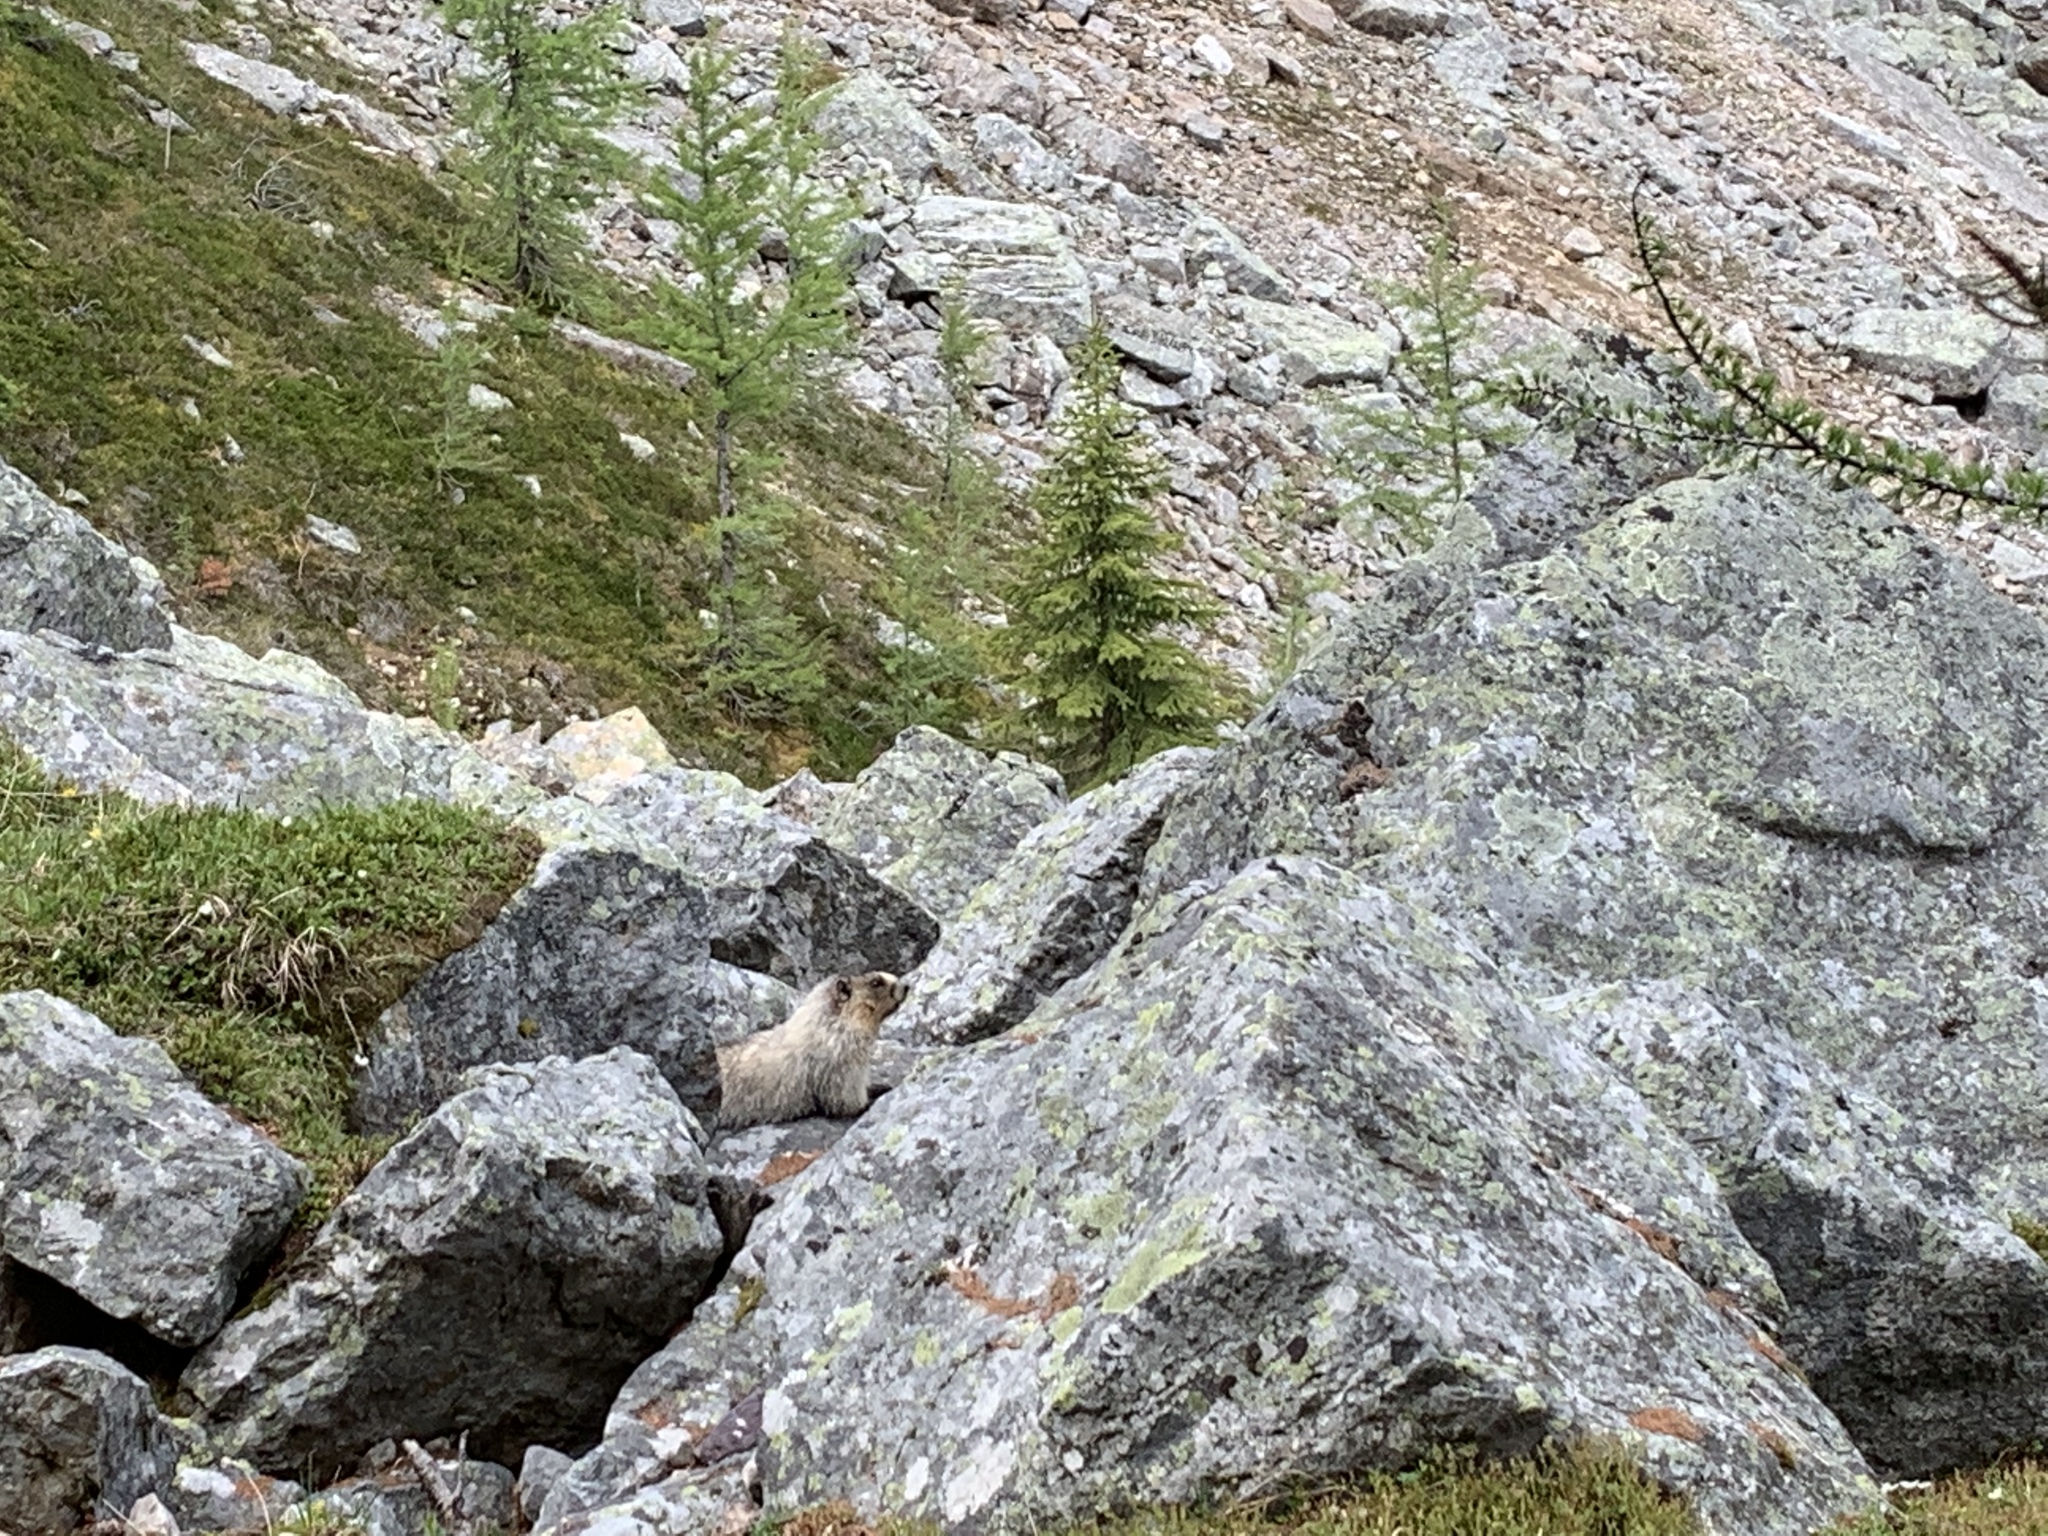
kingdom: Animalia
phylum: Chordata
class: Mammalia
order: Rodentia
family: Sciuridae
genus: Marmota
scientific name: Marmota caligata
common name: Hoary marmot
